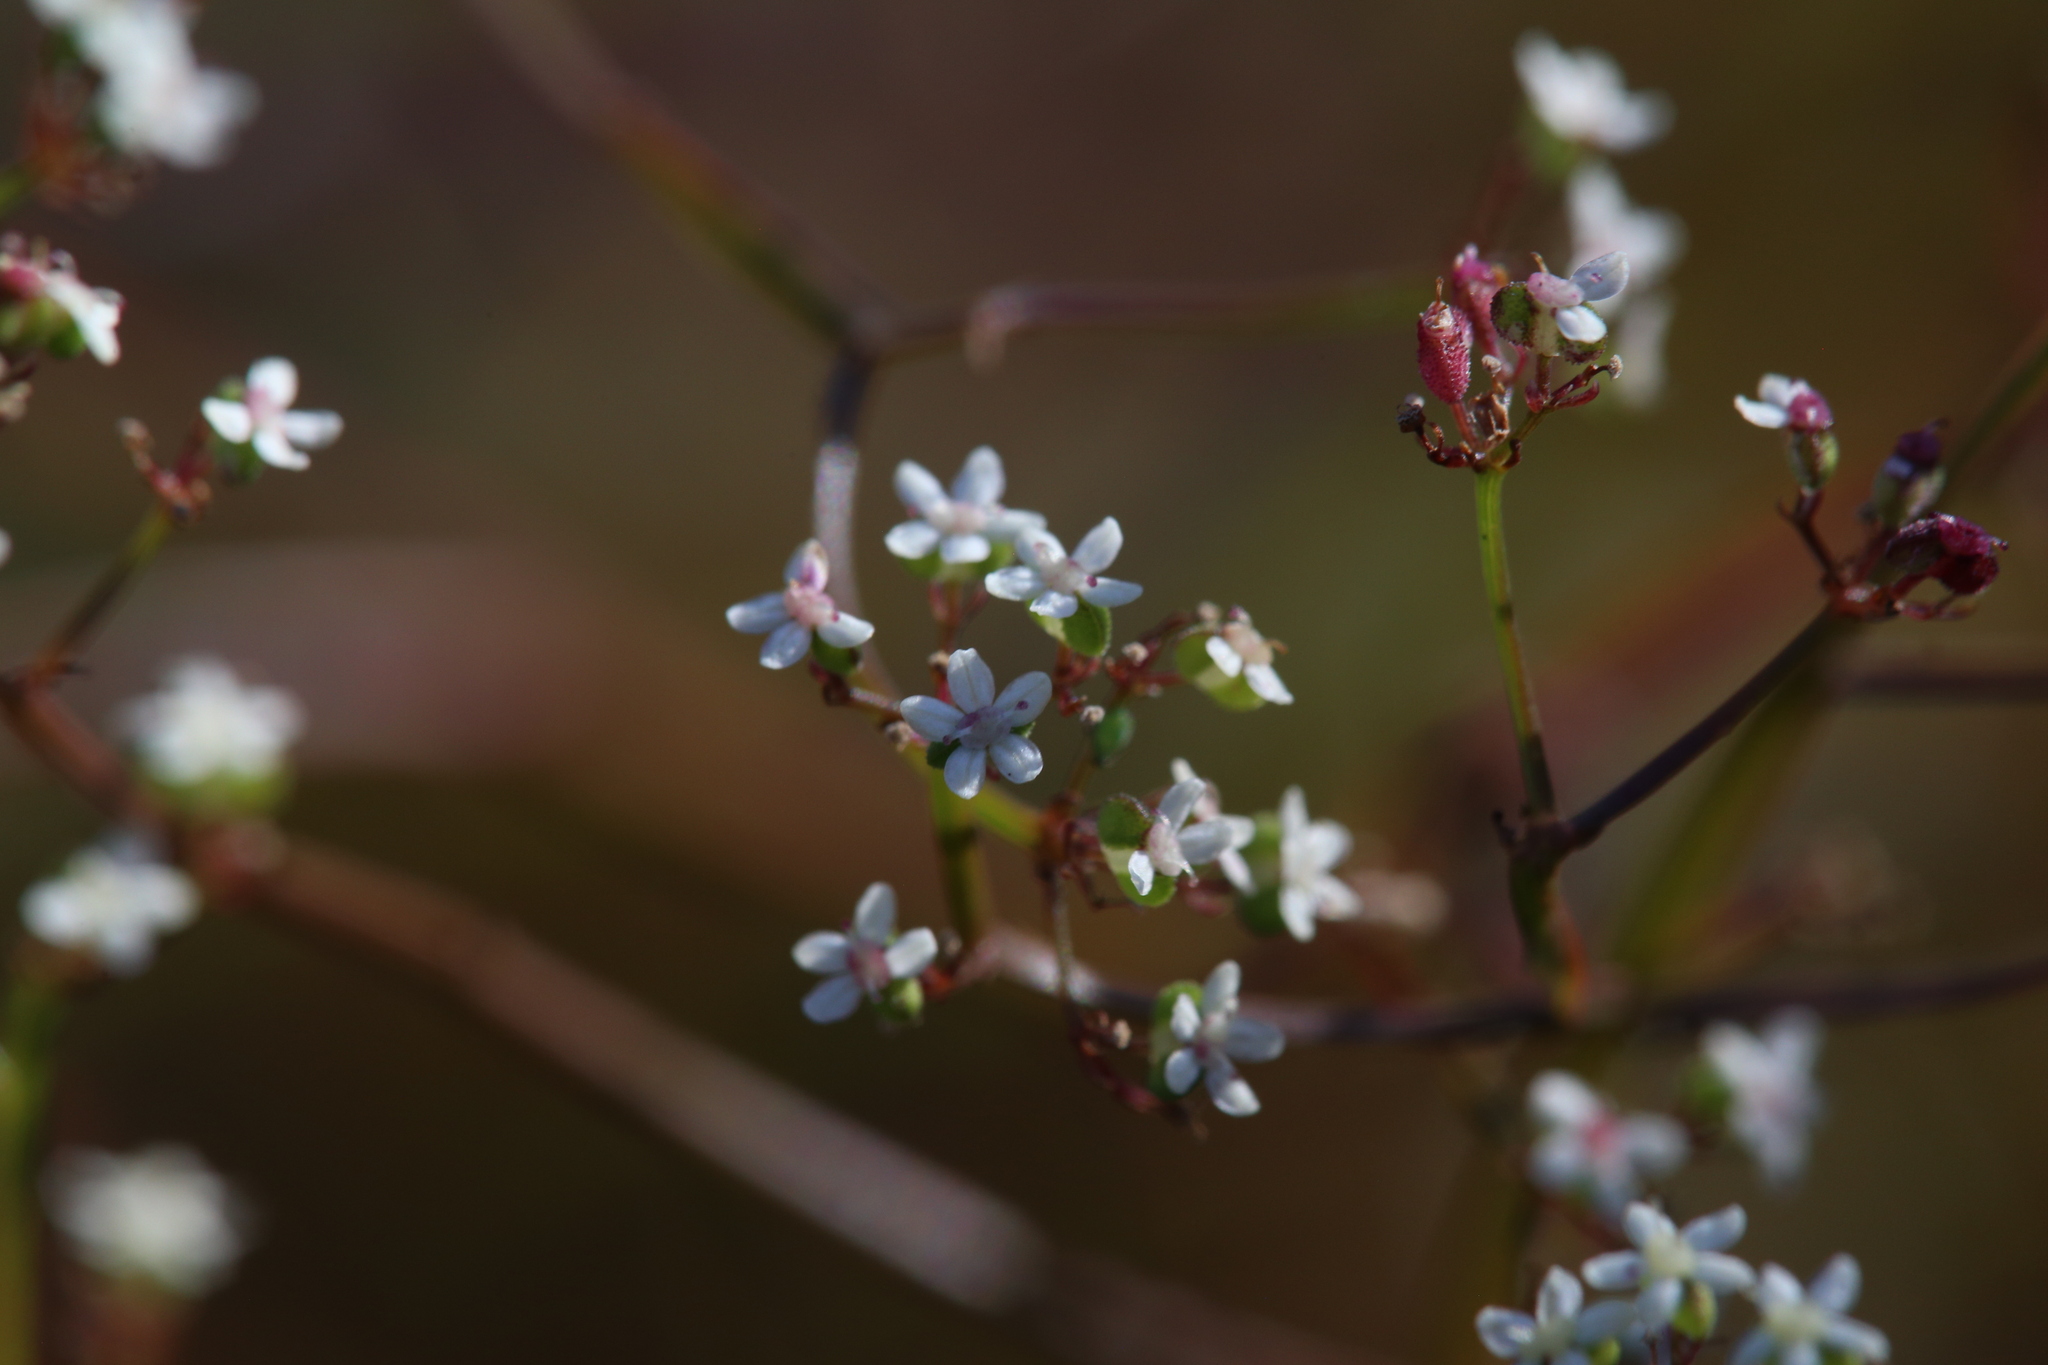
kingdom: Plantae
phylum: Tracheophyta
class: Magnoliopsida
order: Apiales
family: Apiaceae
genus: Platysace
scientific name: Platysace filiformis
